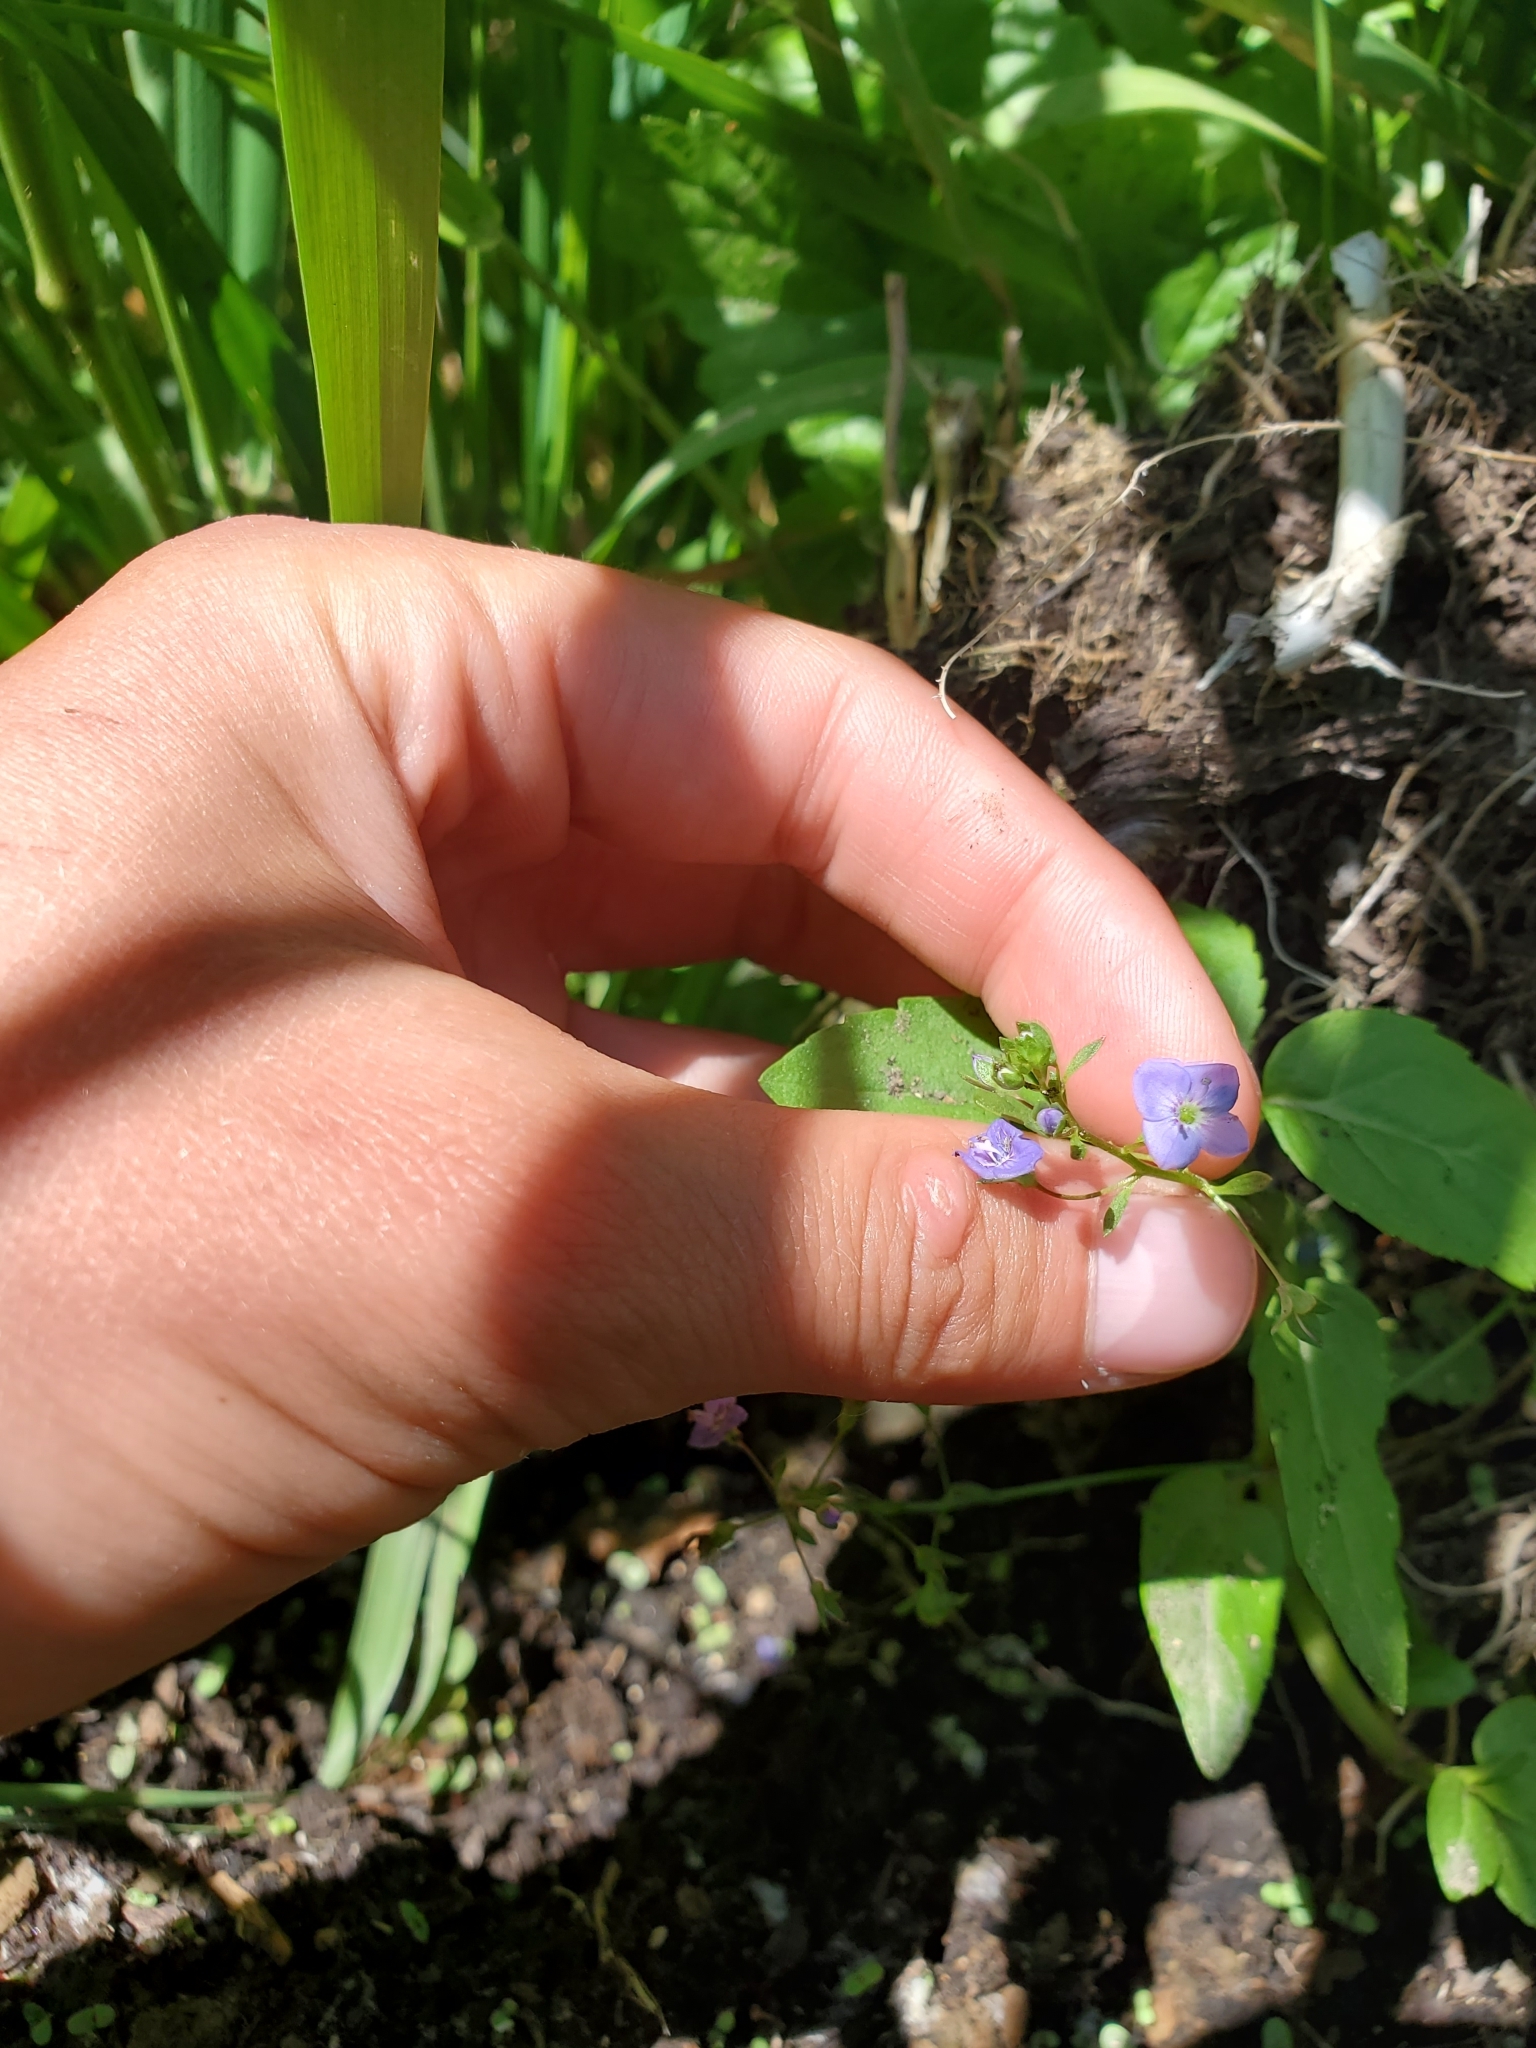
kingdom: Plantae
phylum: Tracheophyta
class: Magnoliopsida
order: Lamiales
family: Plantaginaceae
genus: Veronica
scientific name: Veronica americana
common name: American brooklime
